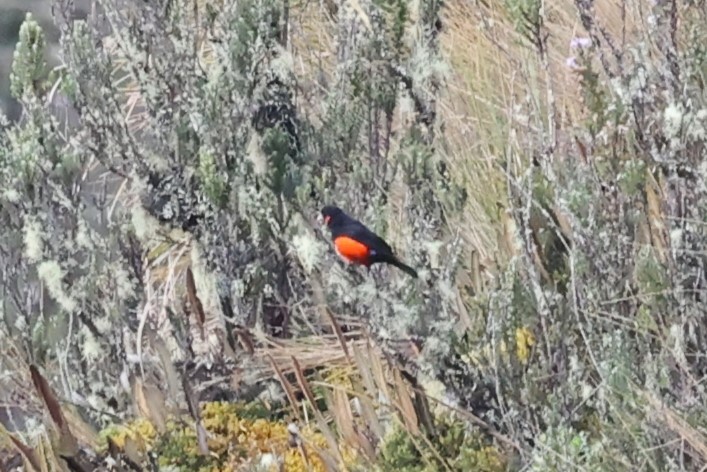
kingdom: Animalia
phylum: Chordata
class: Aves
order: Passeriformes
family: Thraupidae
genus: Anisognathus
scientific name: Anisognathus igniventris
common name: Scarlet-bellied mountain tanager
